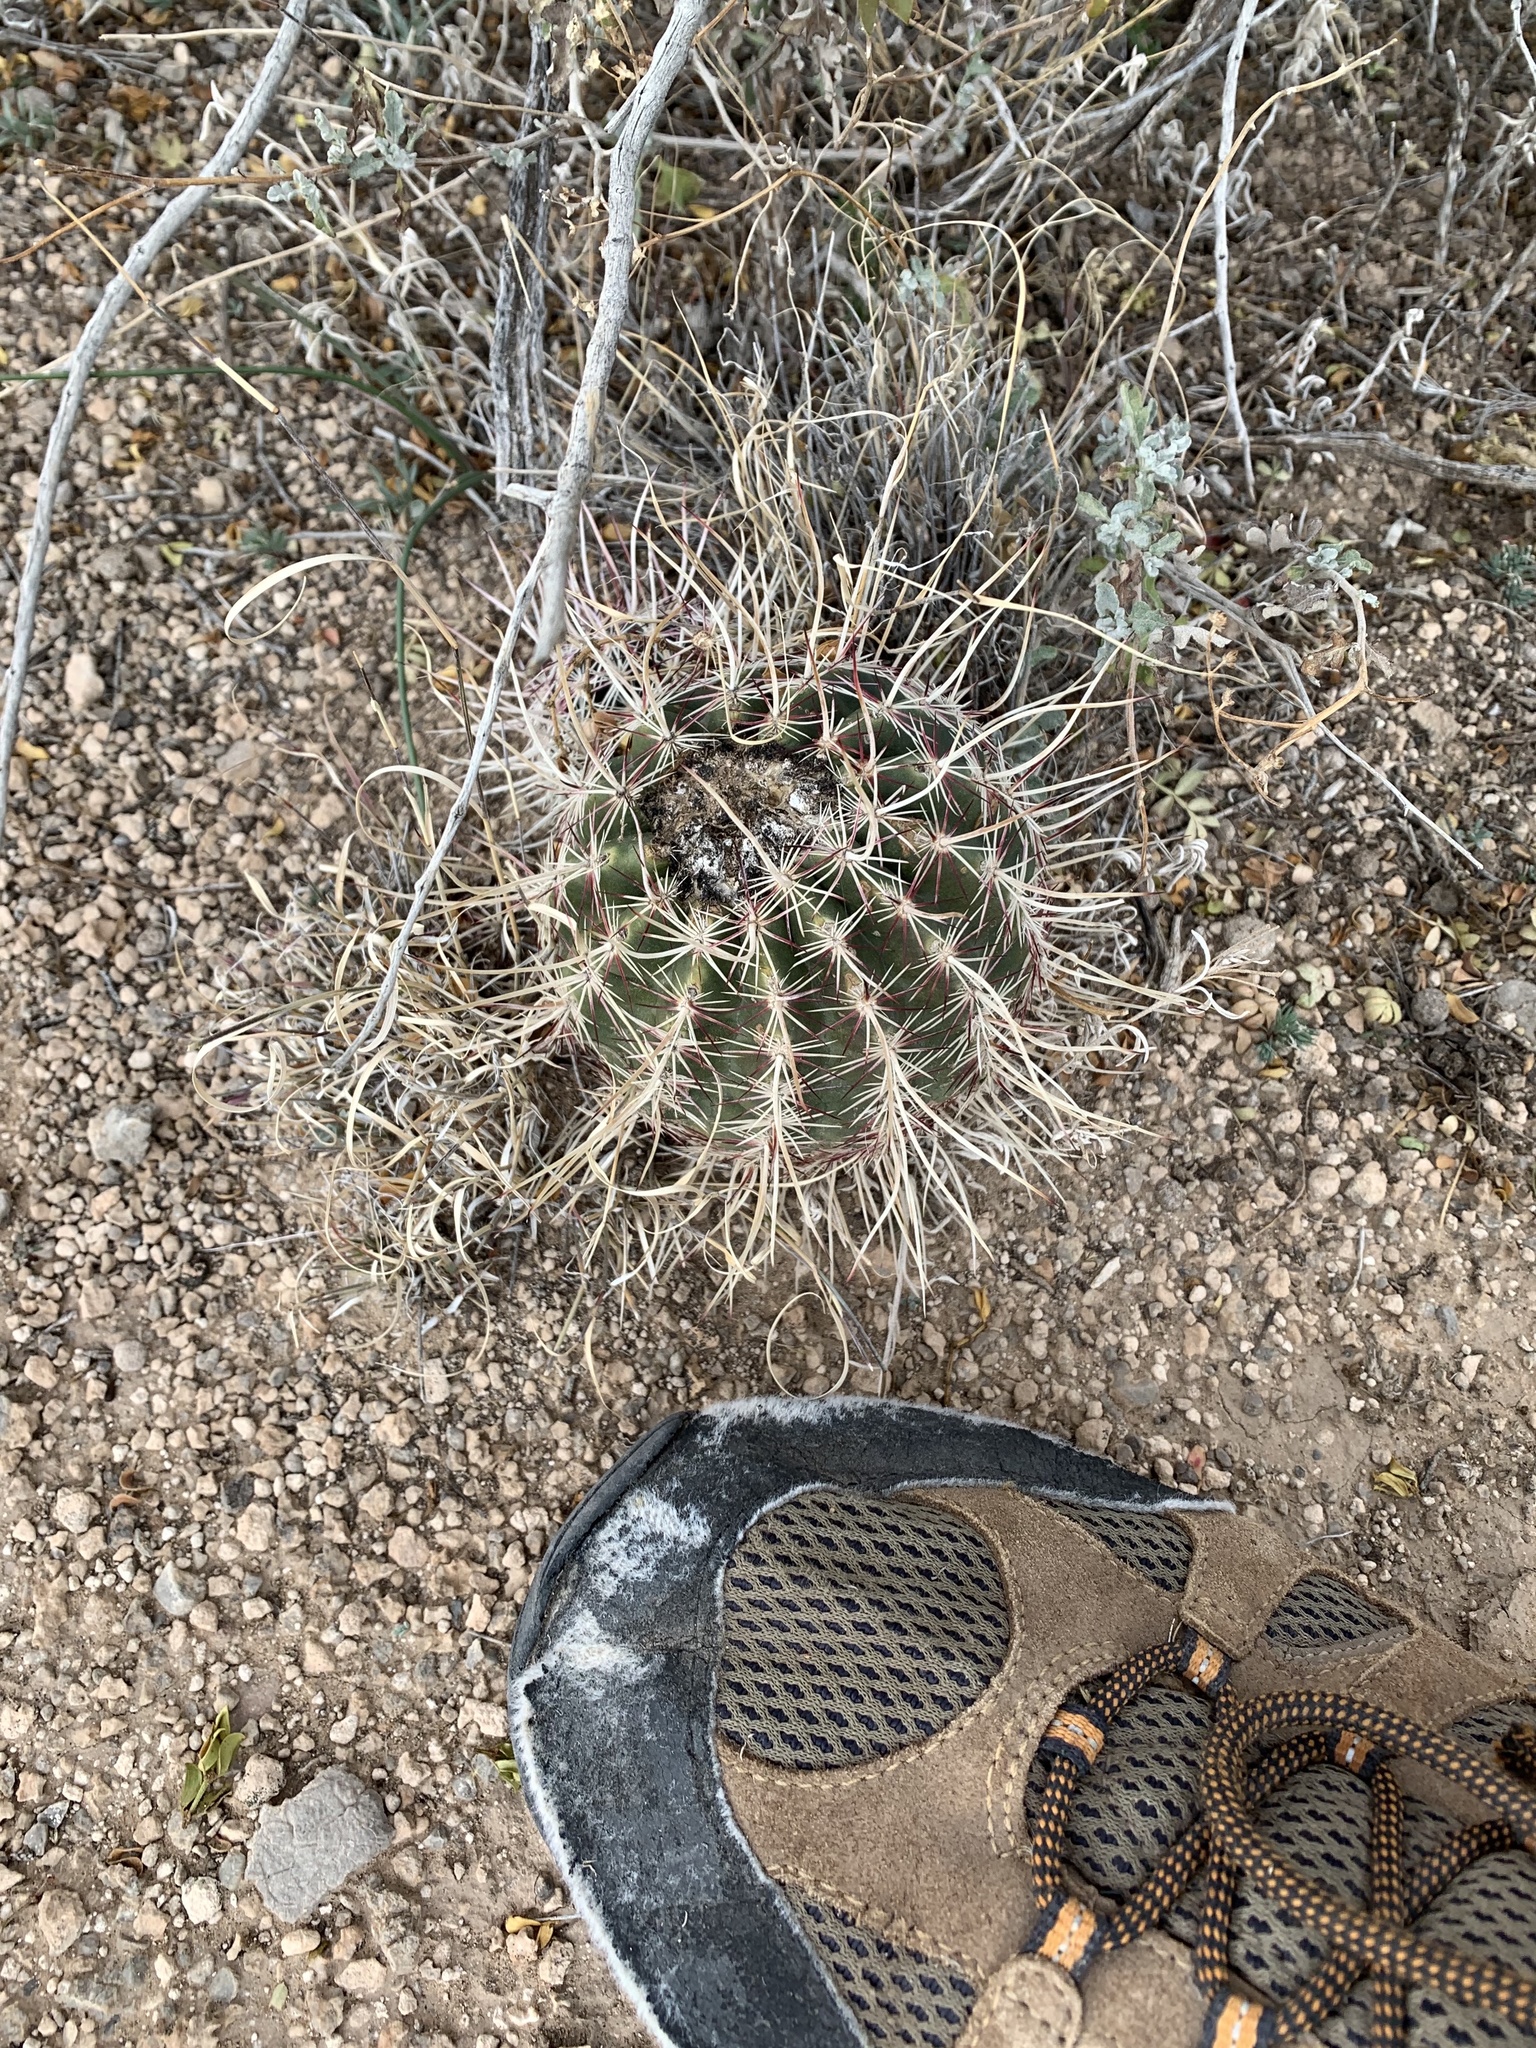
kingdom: Plantae
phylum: Tracheophyta
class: Magnoliopsida
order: Caryophyllales
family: Cactaceae
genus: Echinocereus
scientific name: Echinocereus viridiflorus
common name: Nylon hedgehog cactus
